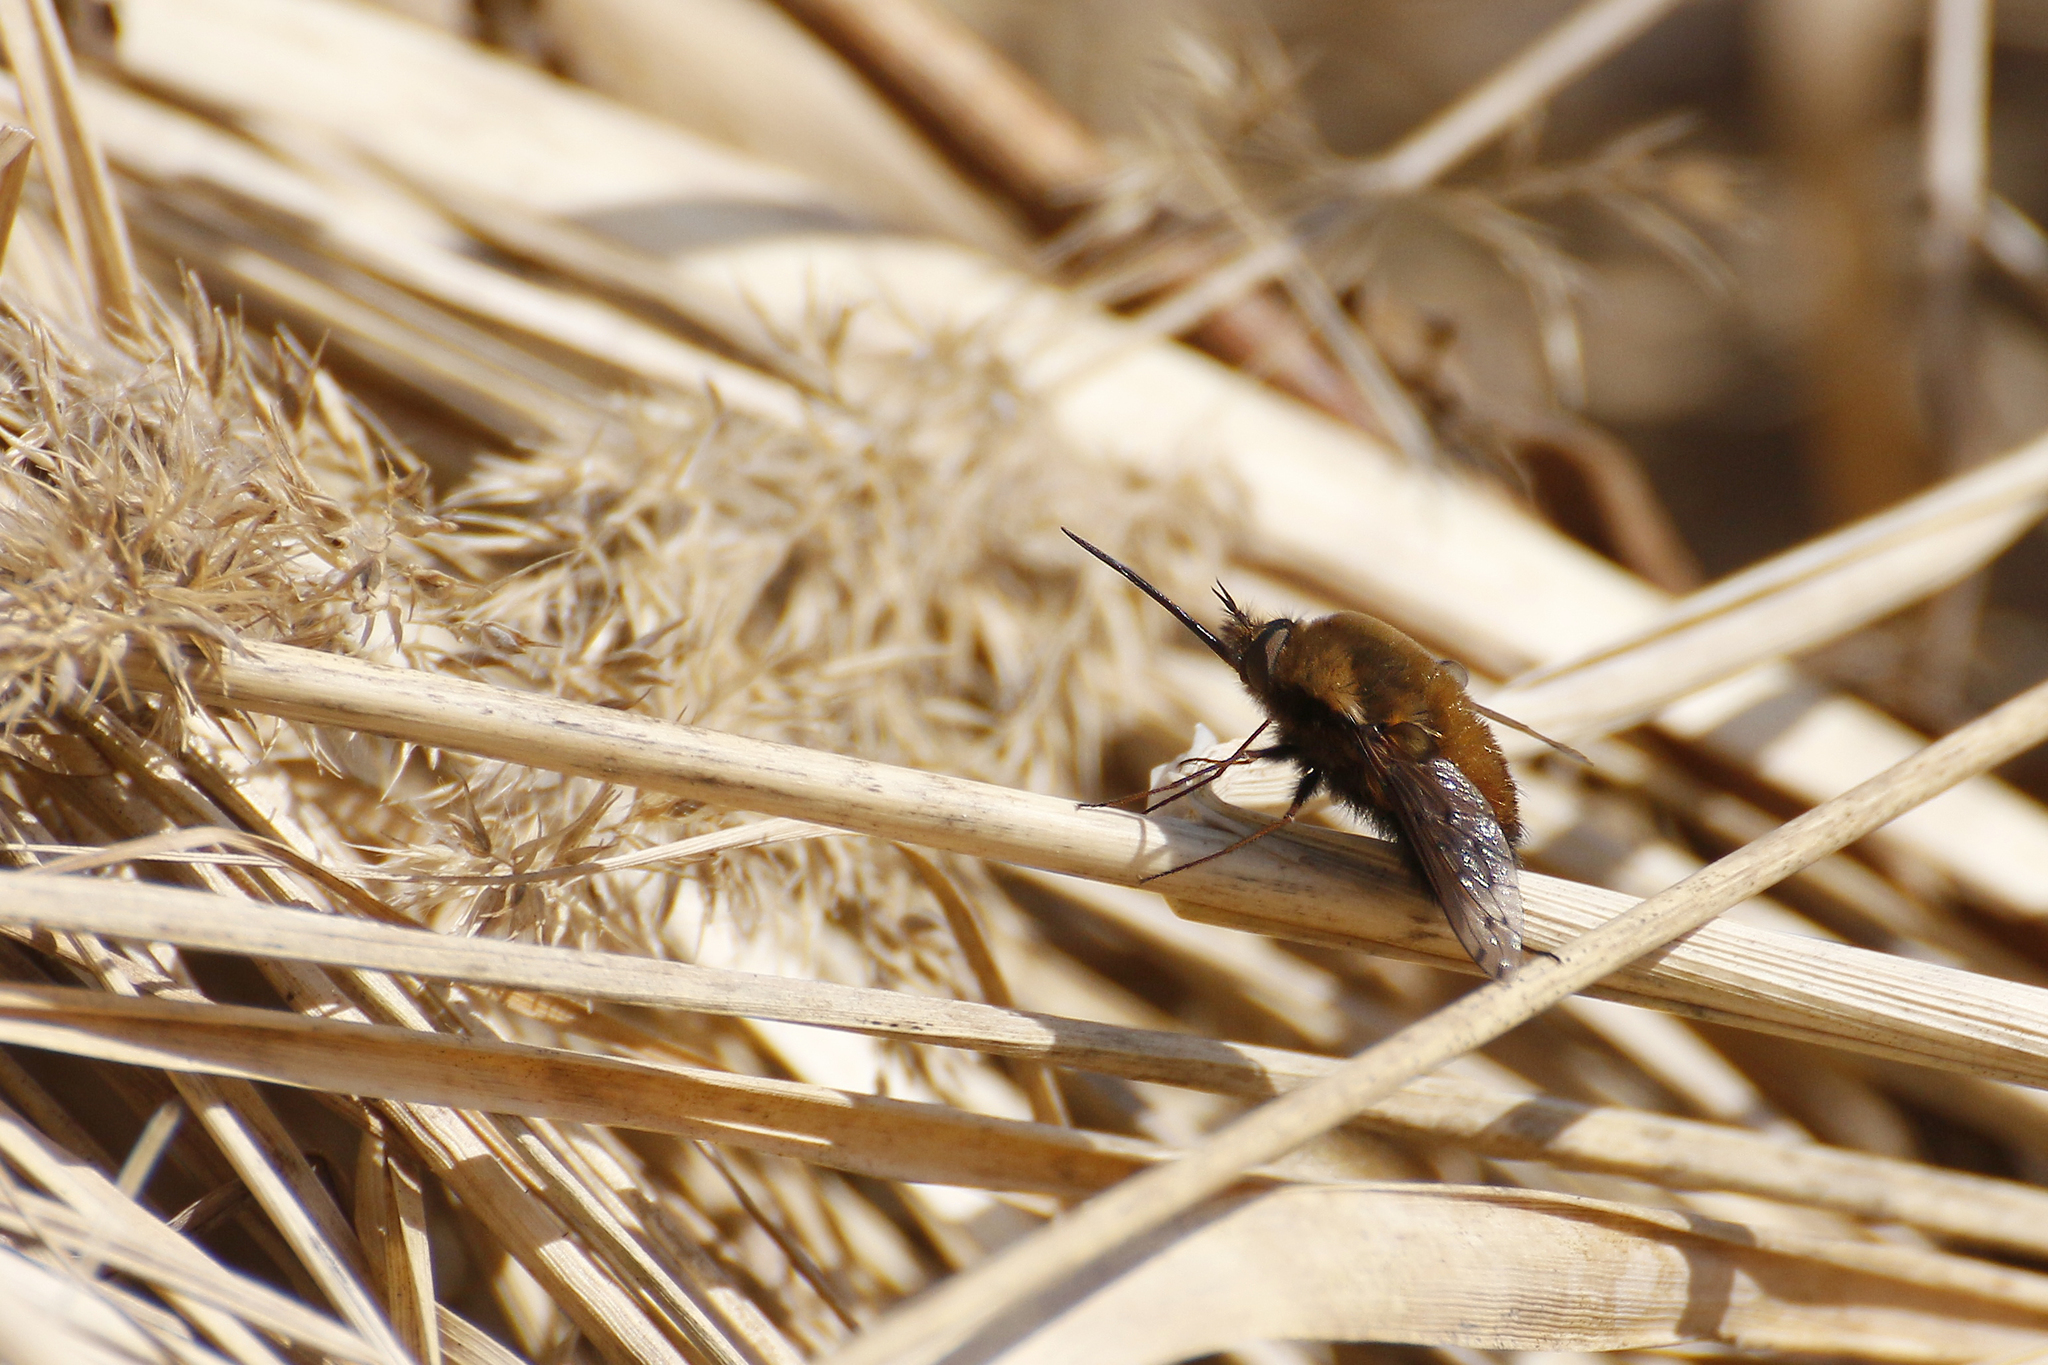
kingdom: Animalia
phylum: Arthropoda
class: Insecta
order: Diptera
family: Bombyliidae
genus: Bombylius
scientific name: Bombylius discolor
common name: Dotted bee-fly
